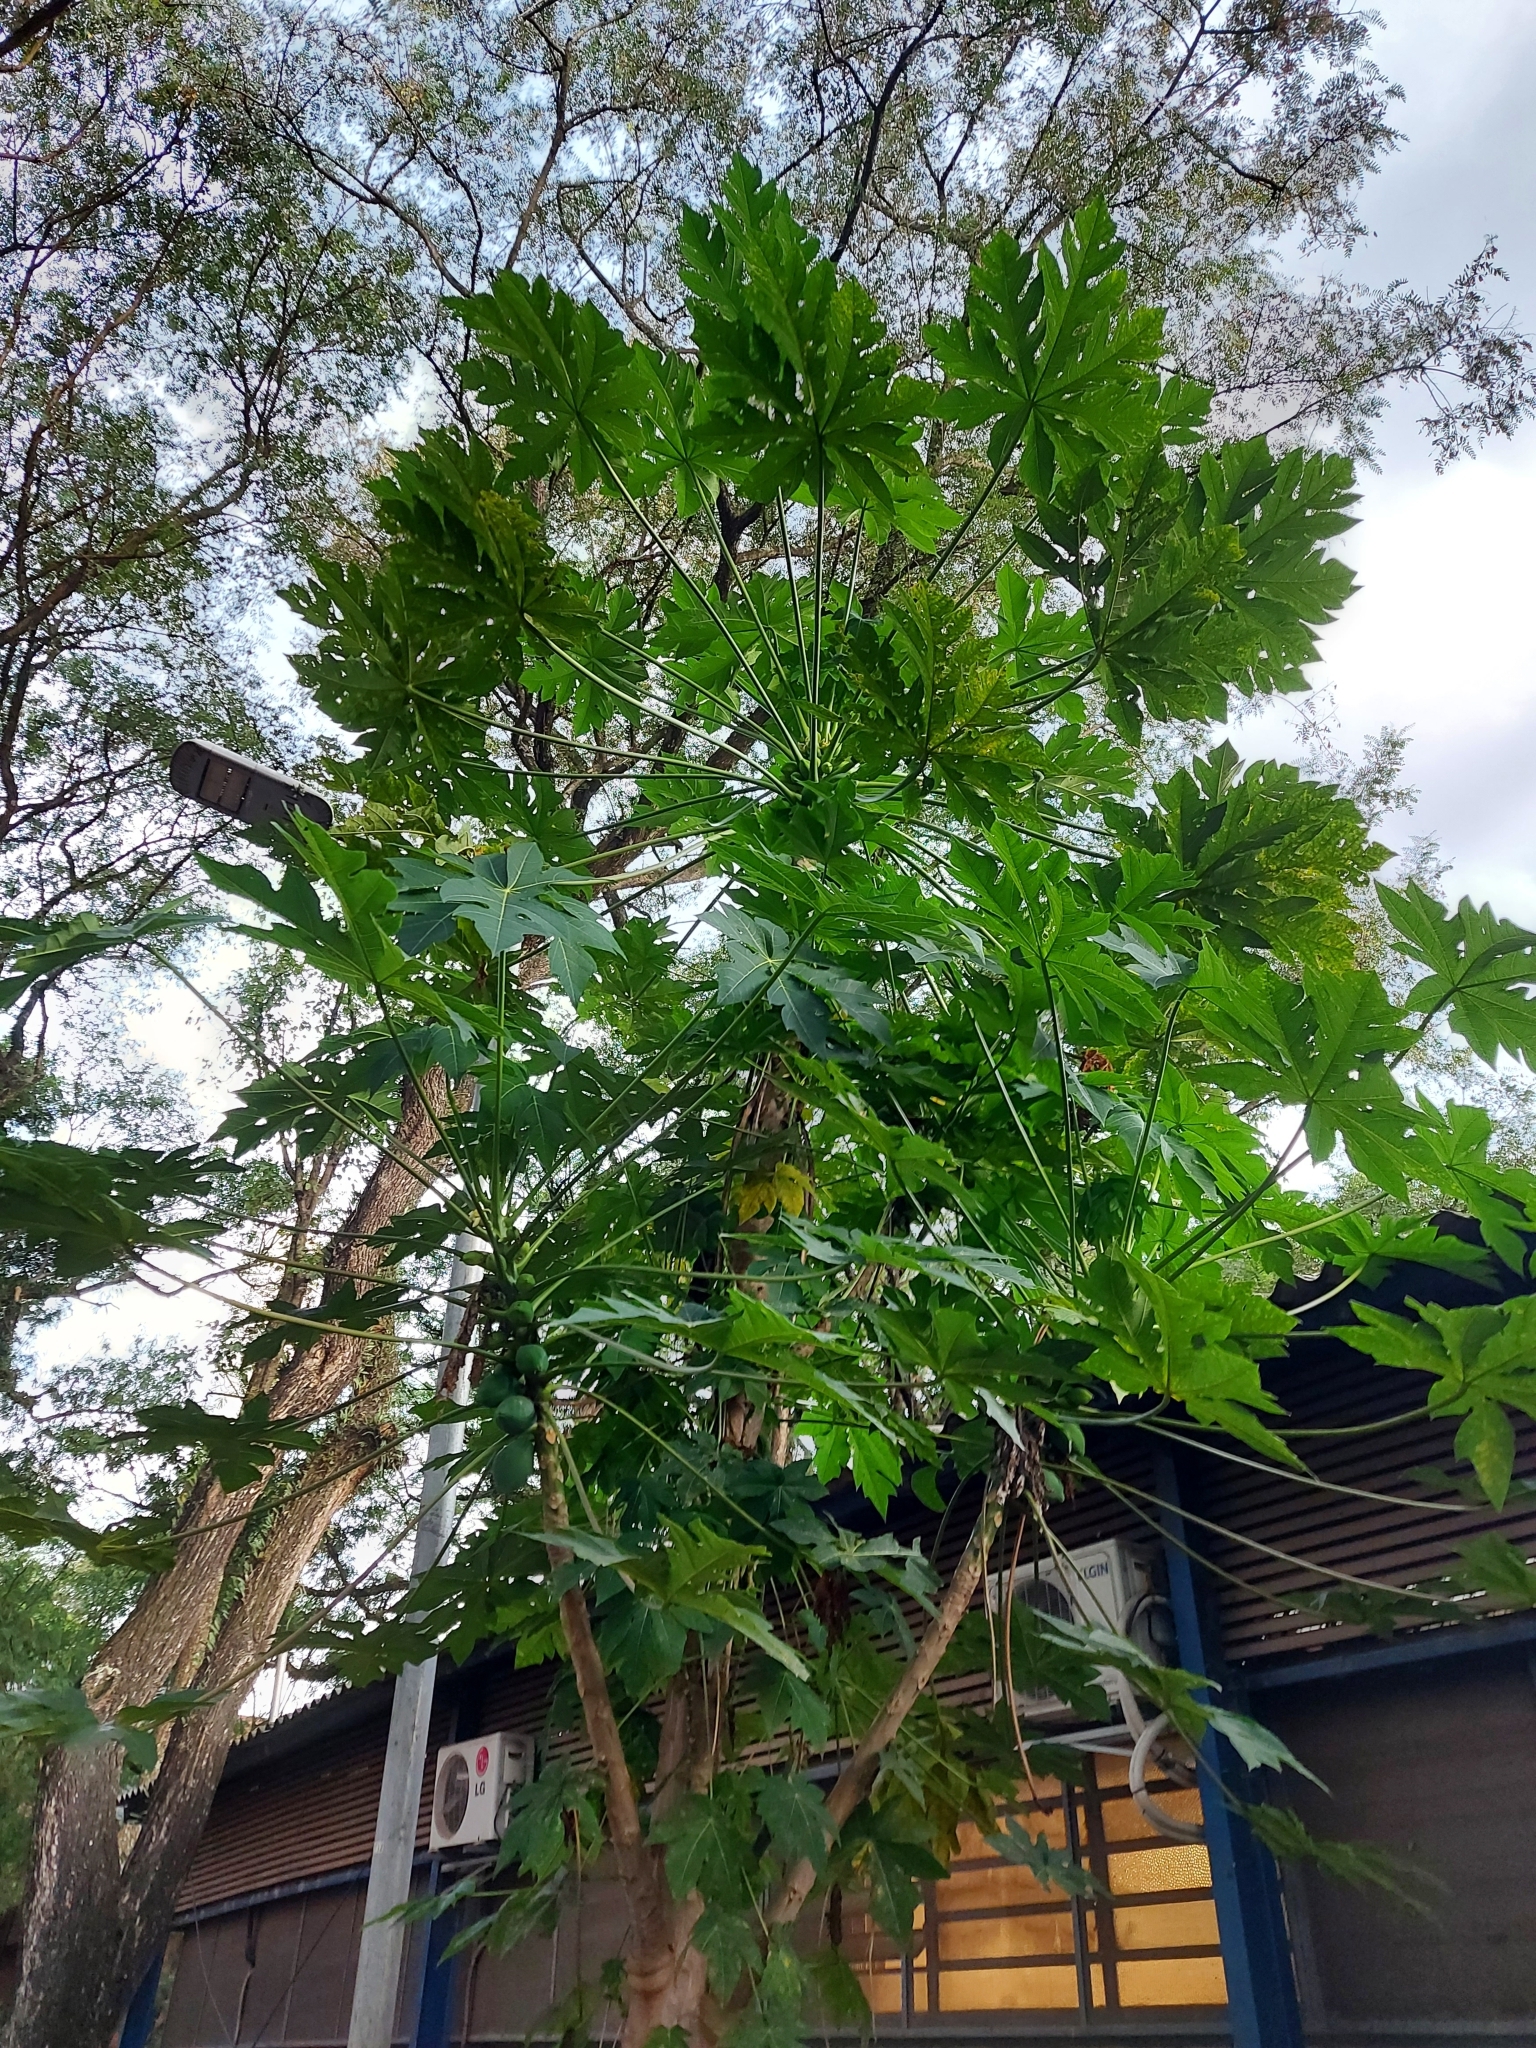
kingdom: Plantae
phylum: Tracheophyta
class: Magnoliopsida
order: Brassicales
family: Caricaceae
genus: Carica
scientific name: Carica papaya
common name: Papaya
